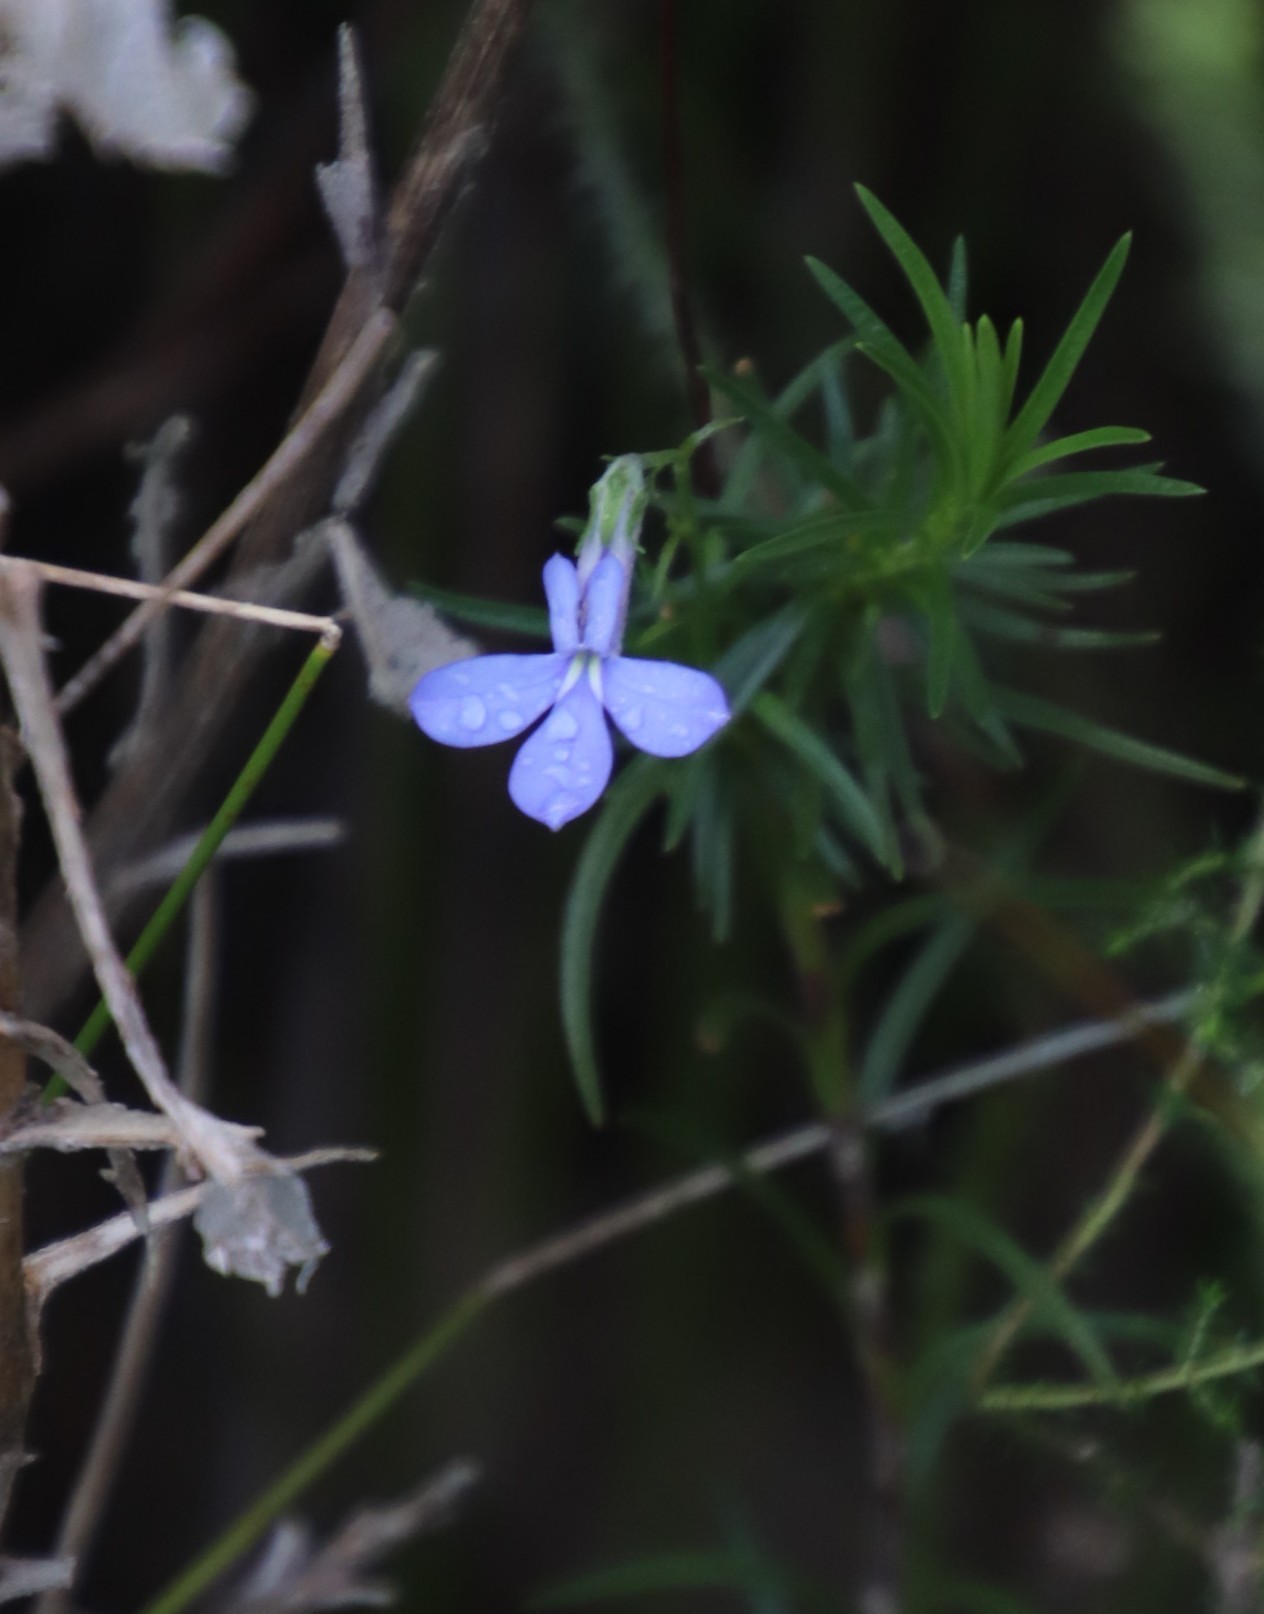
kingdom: Plantae
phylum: Tracheophyta
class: Magnoliopsida
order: Asterales
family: Campanulaceae
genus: Lobelia
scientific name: Lobelia pinifolia
